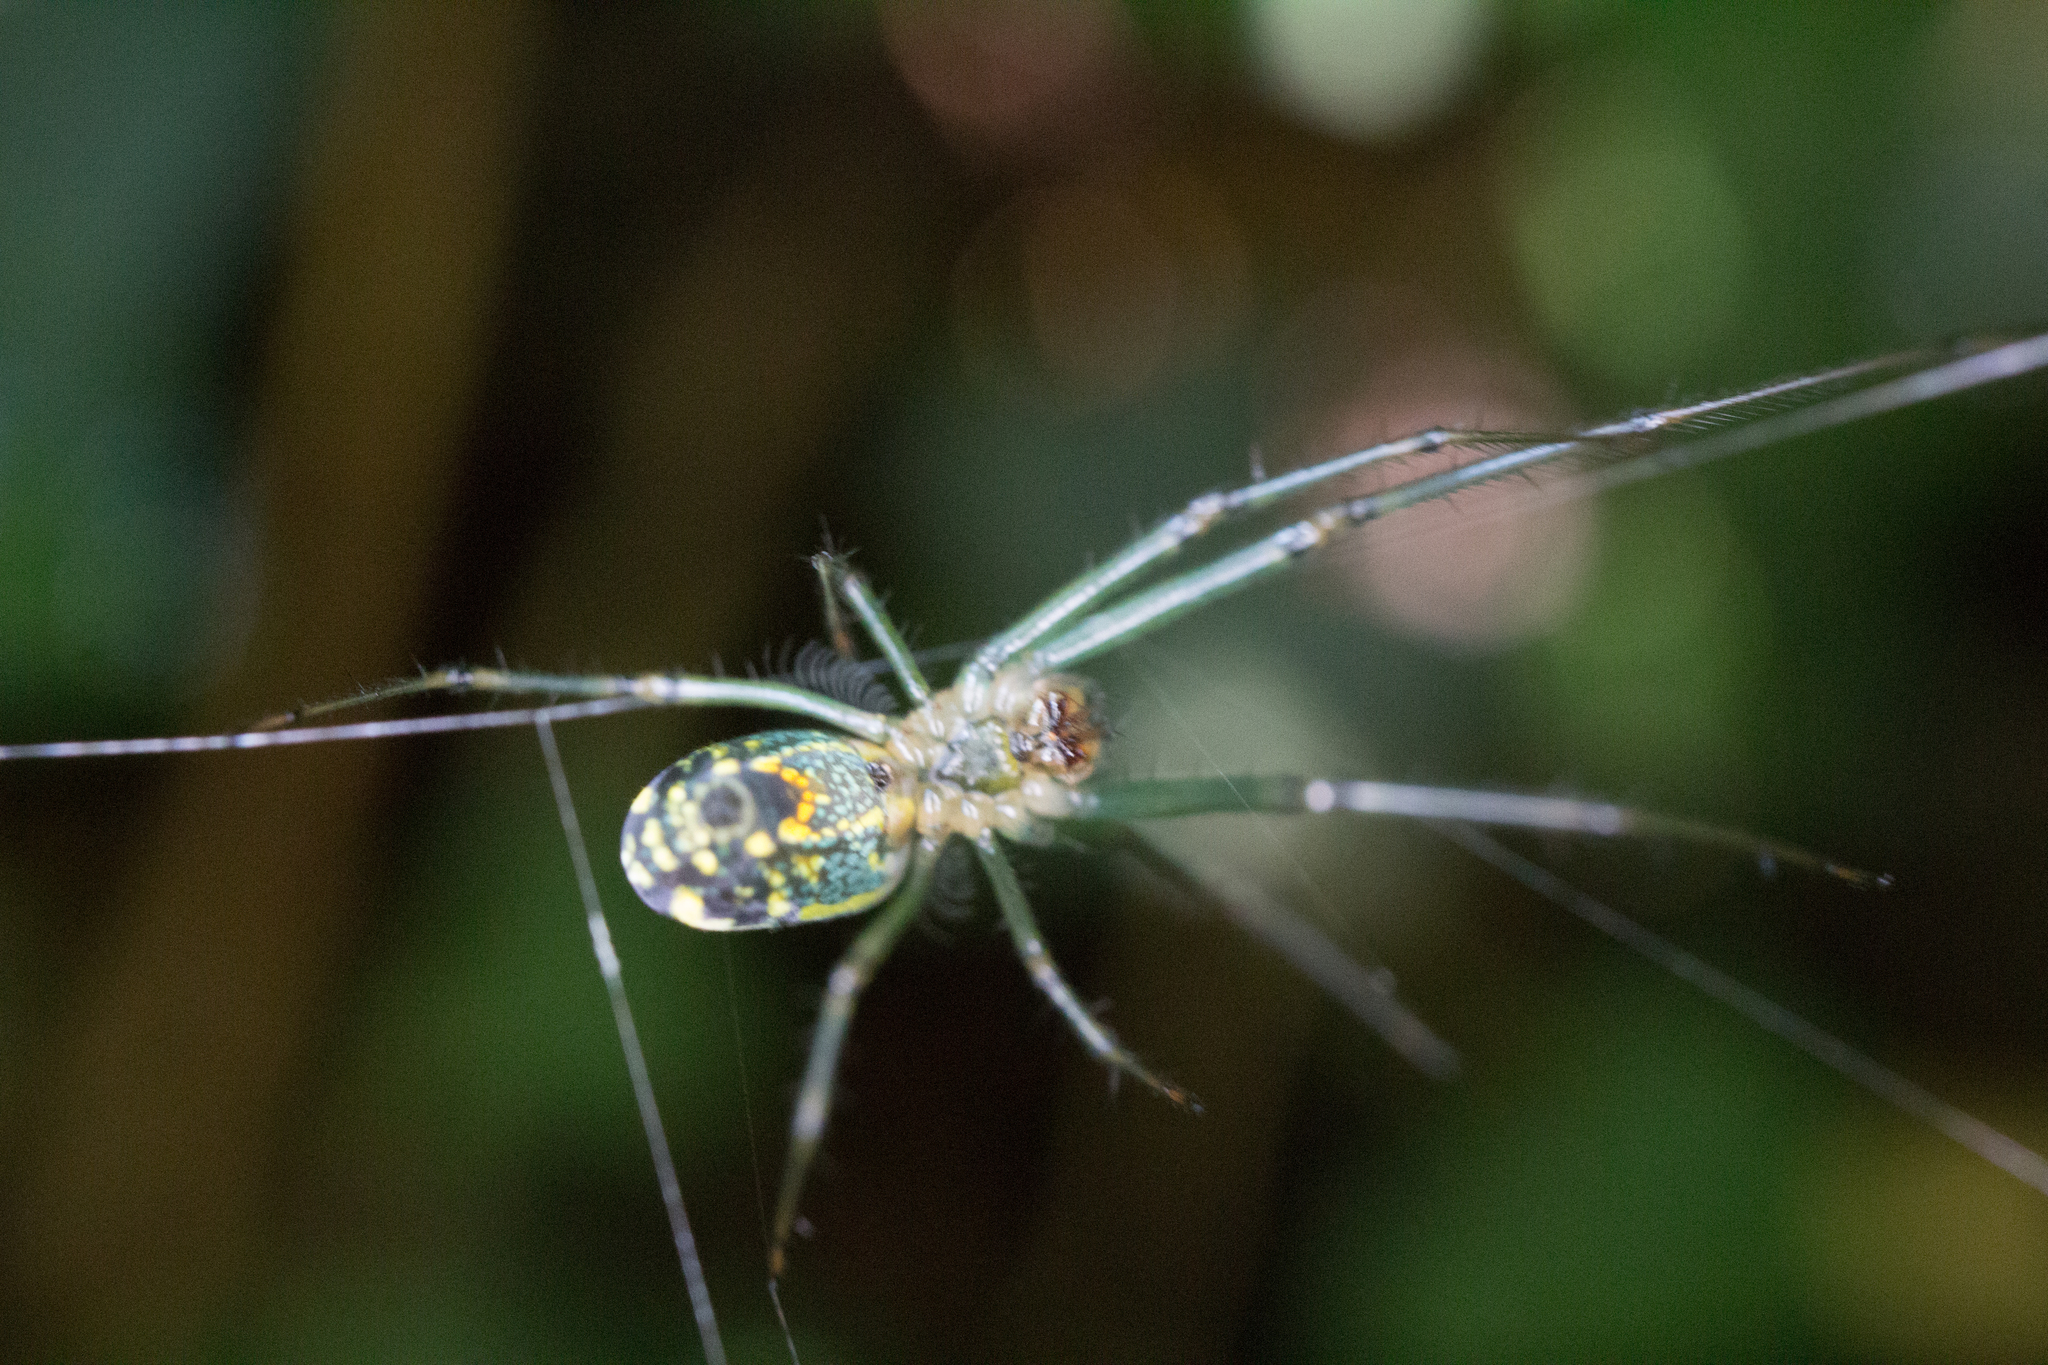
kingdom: Animalia
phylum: Arthropoda
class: Arachnida
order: Araneae
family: Tetragnathidae
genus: Leucauge
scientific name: Leucauge venusta
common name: Longjawed orb weavers
